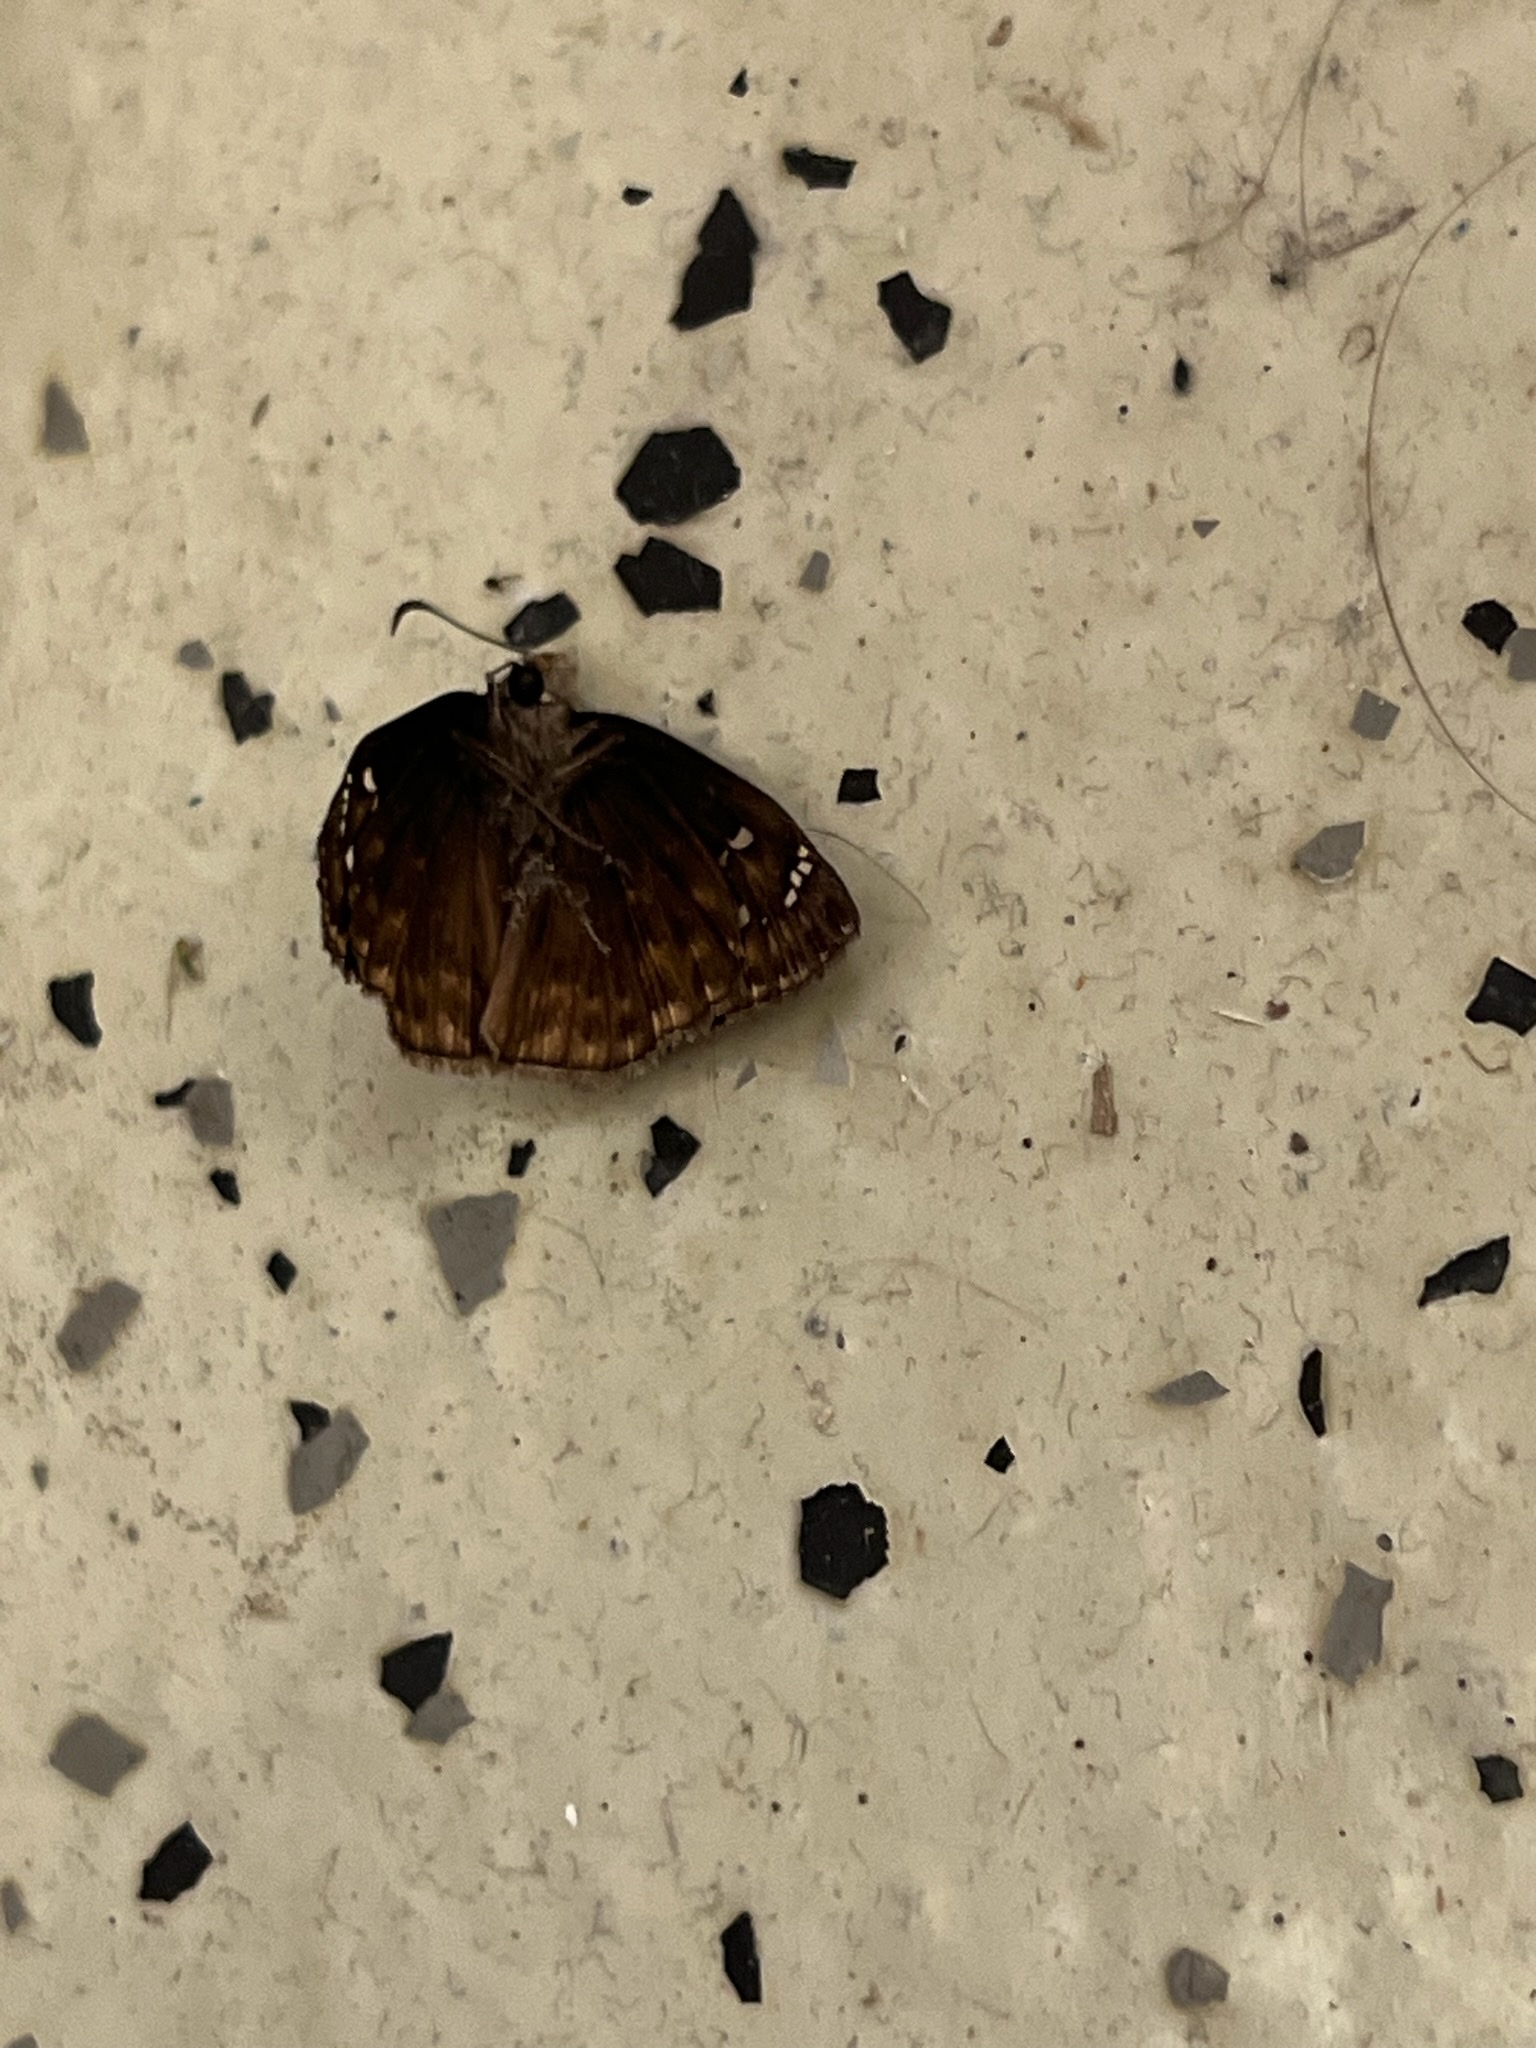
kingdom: Animalia
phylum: Arthropoda
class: Insecta
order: Lepidoptera
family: Hesperiidae
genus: Erynnis
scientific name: Erynnis horatius
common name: Horace's duskywing
